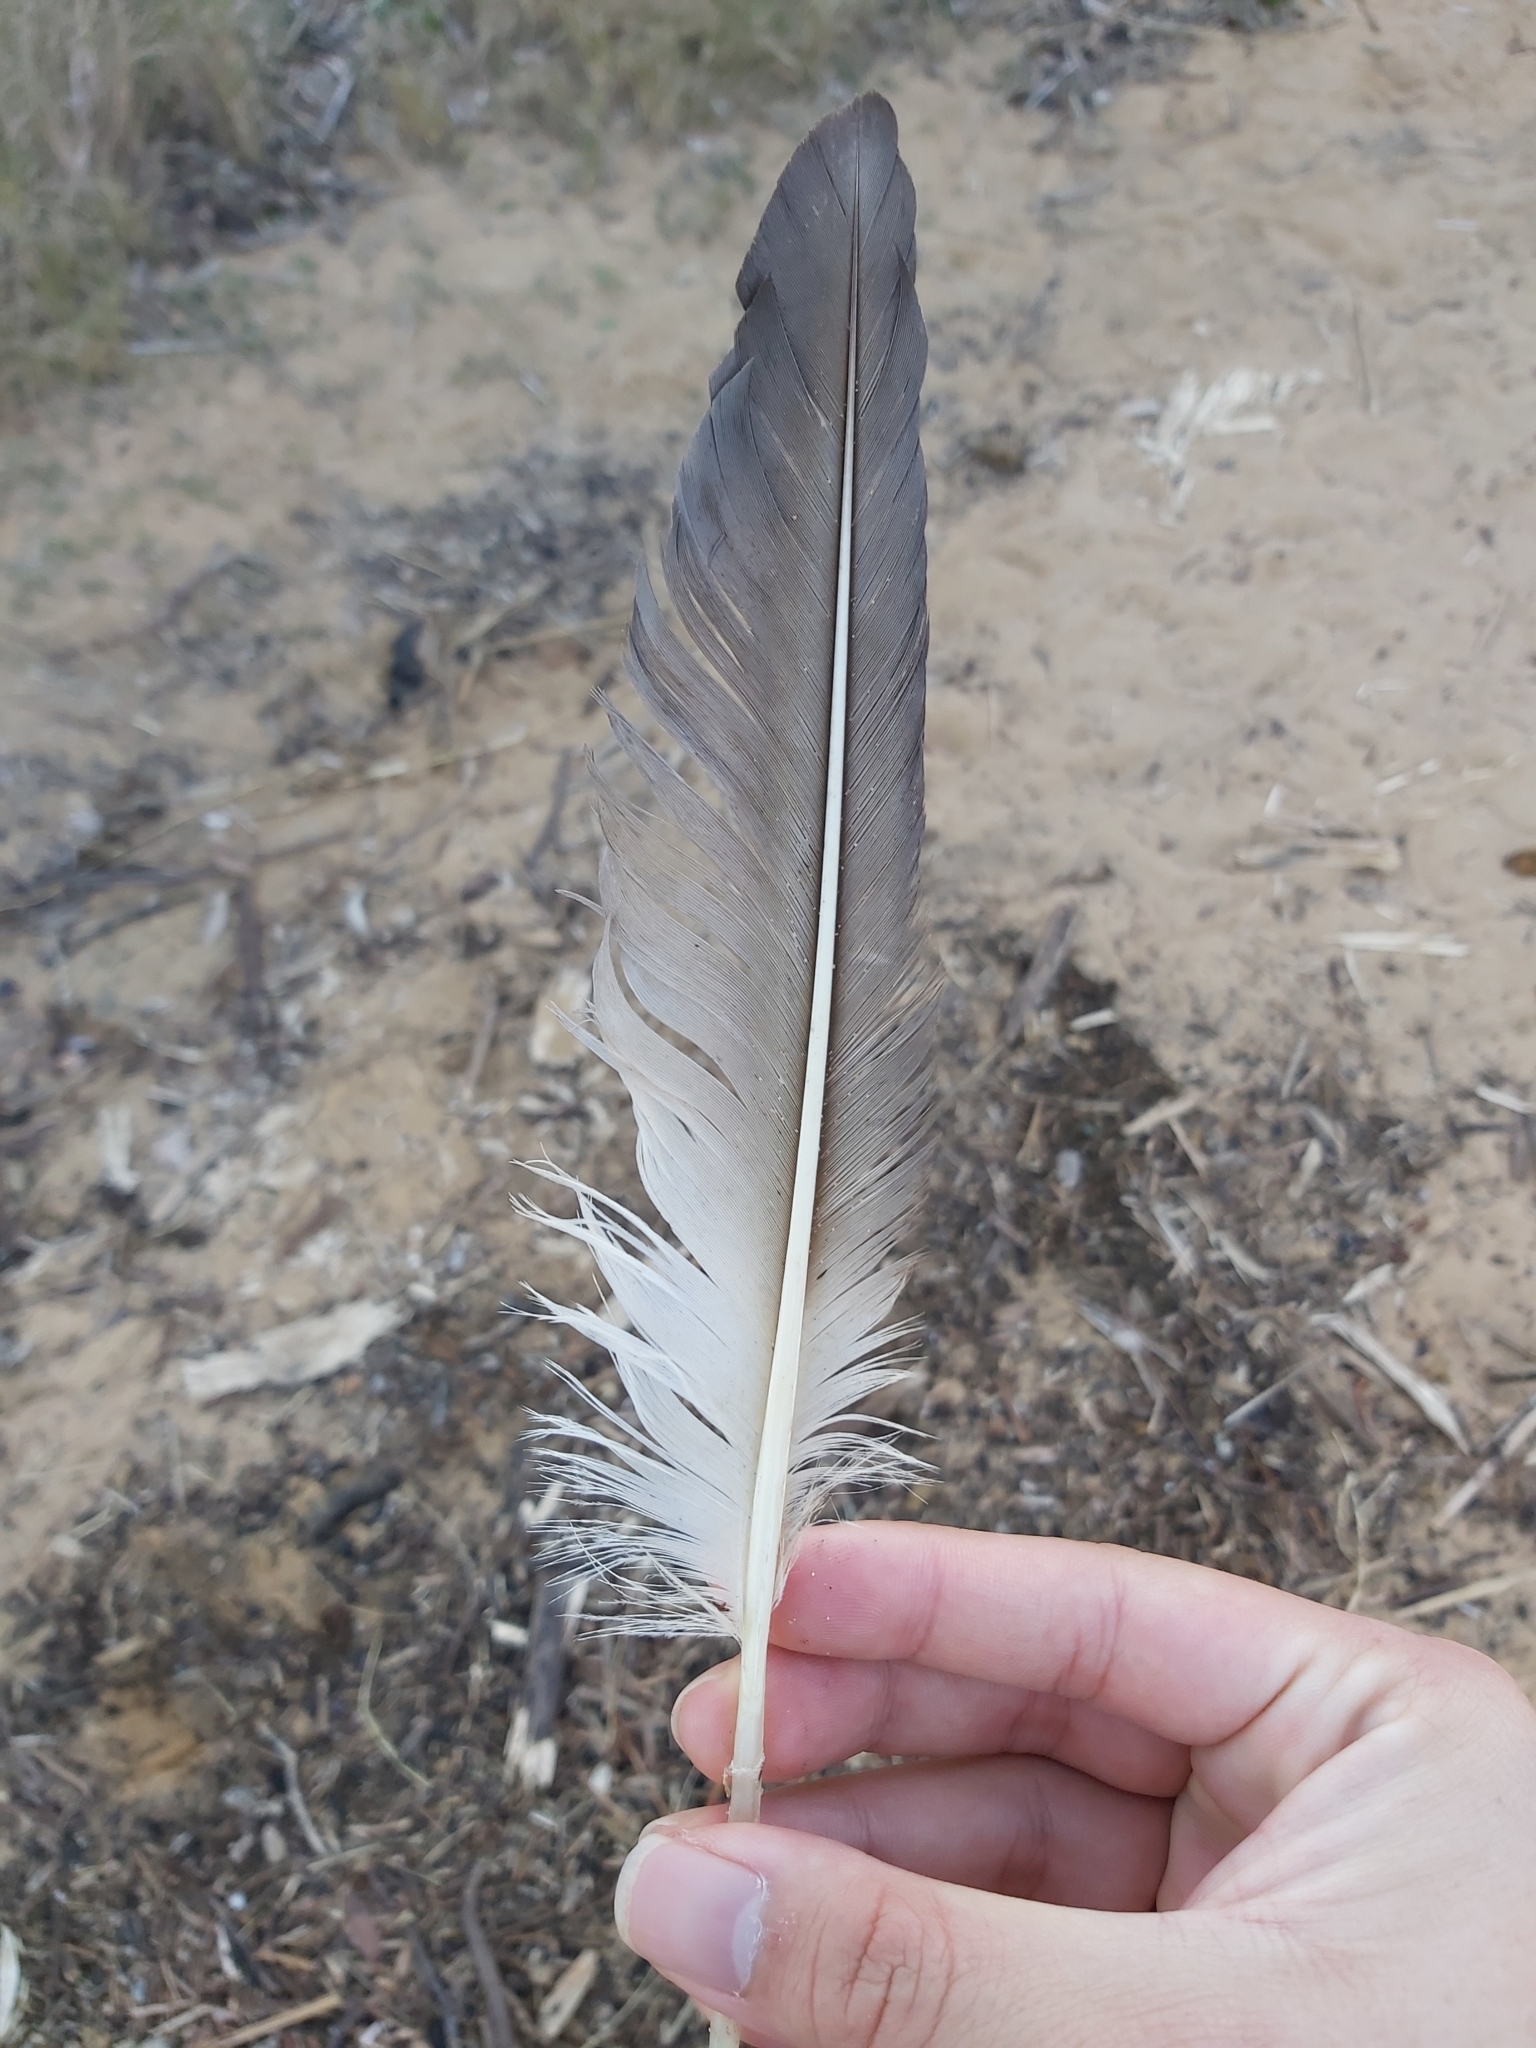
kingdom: Animalia
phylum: Chordata
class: Aves
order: Suliformes
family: Sulidae
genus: Morus
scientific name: Morus serrator
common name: Australasian gannet
